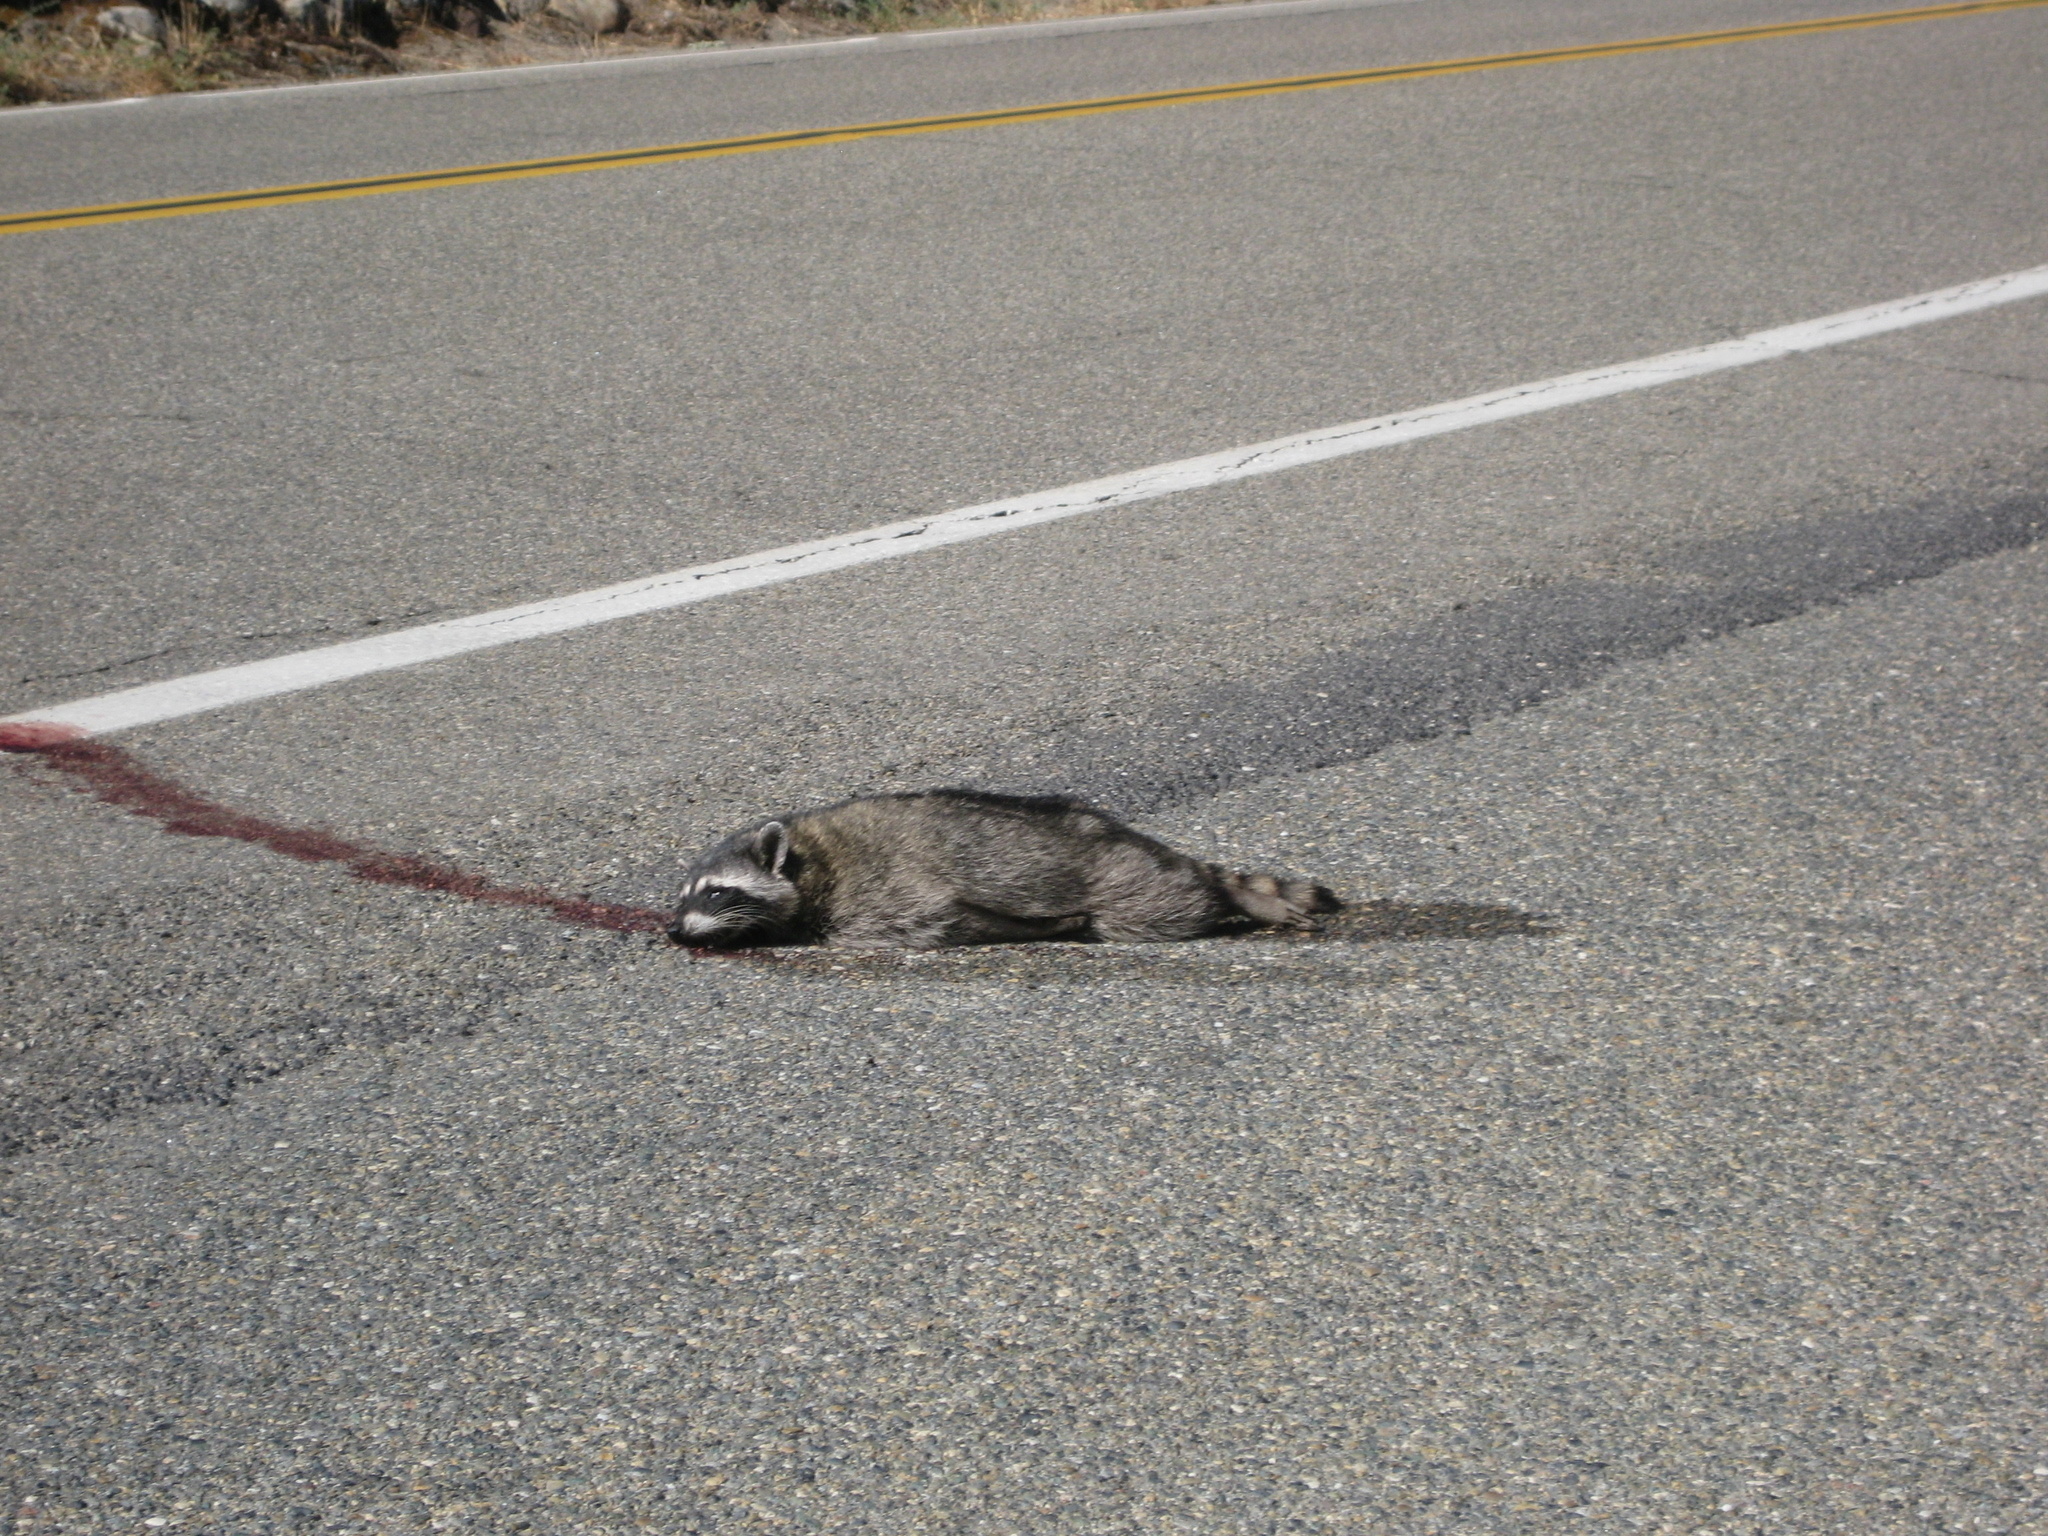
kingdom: Animalia
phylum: Chordata
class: Mammalia
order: Carnivora
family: Procyonidae
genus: Procyon
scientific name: Procyon lotor
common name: Raccoon
